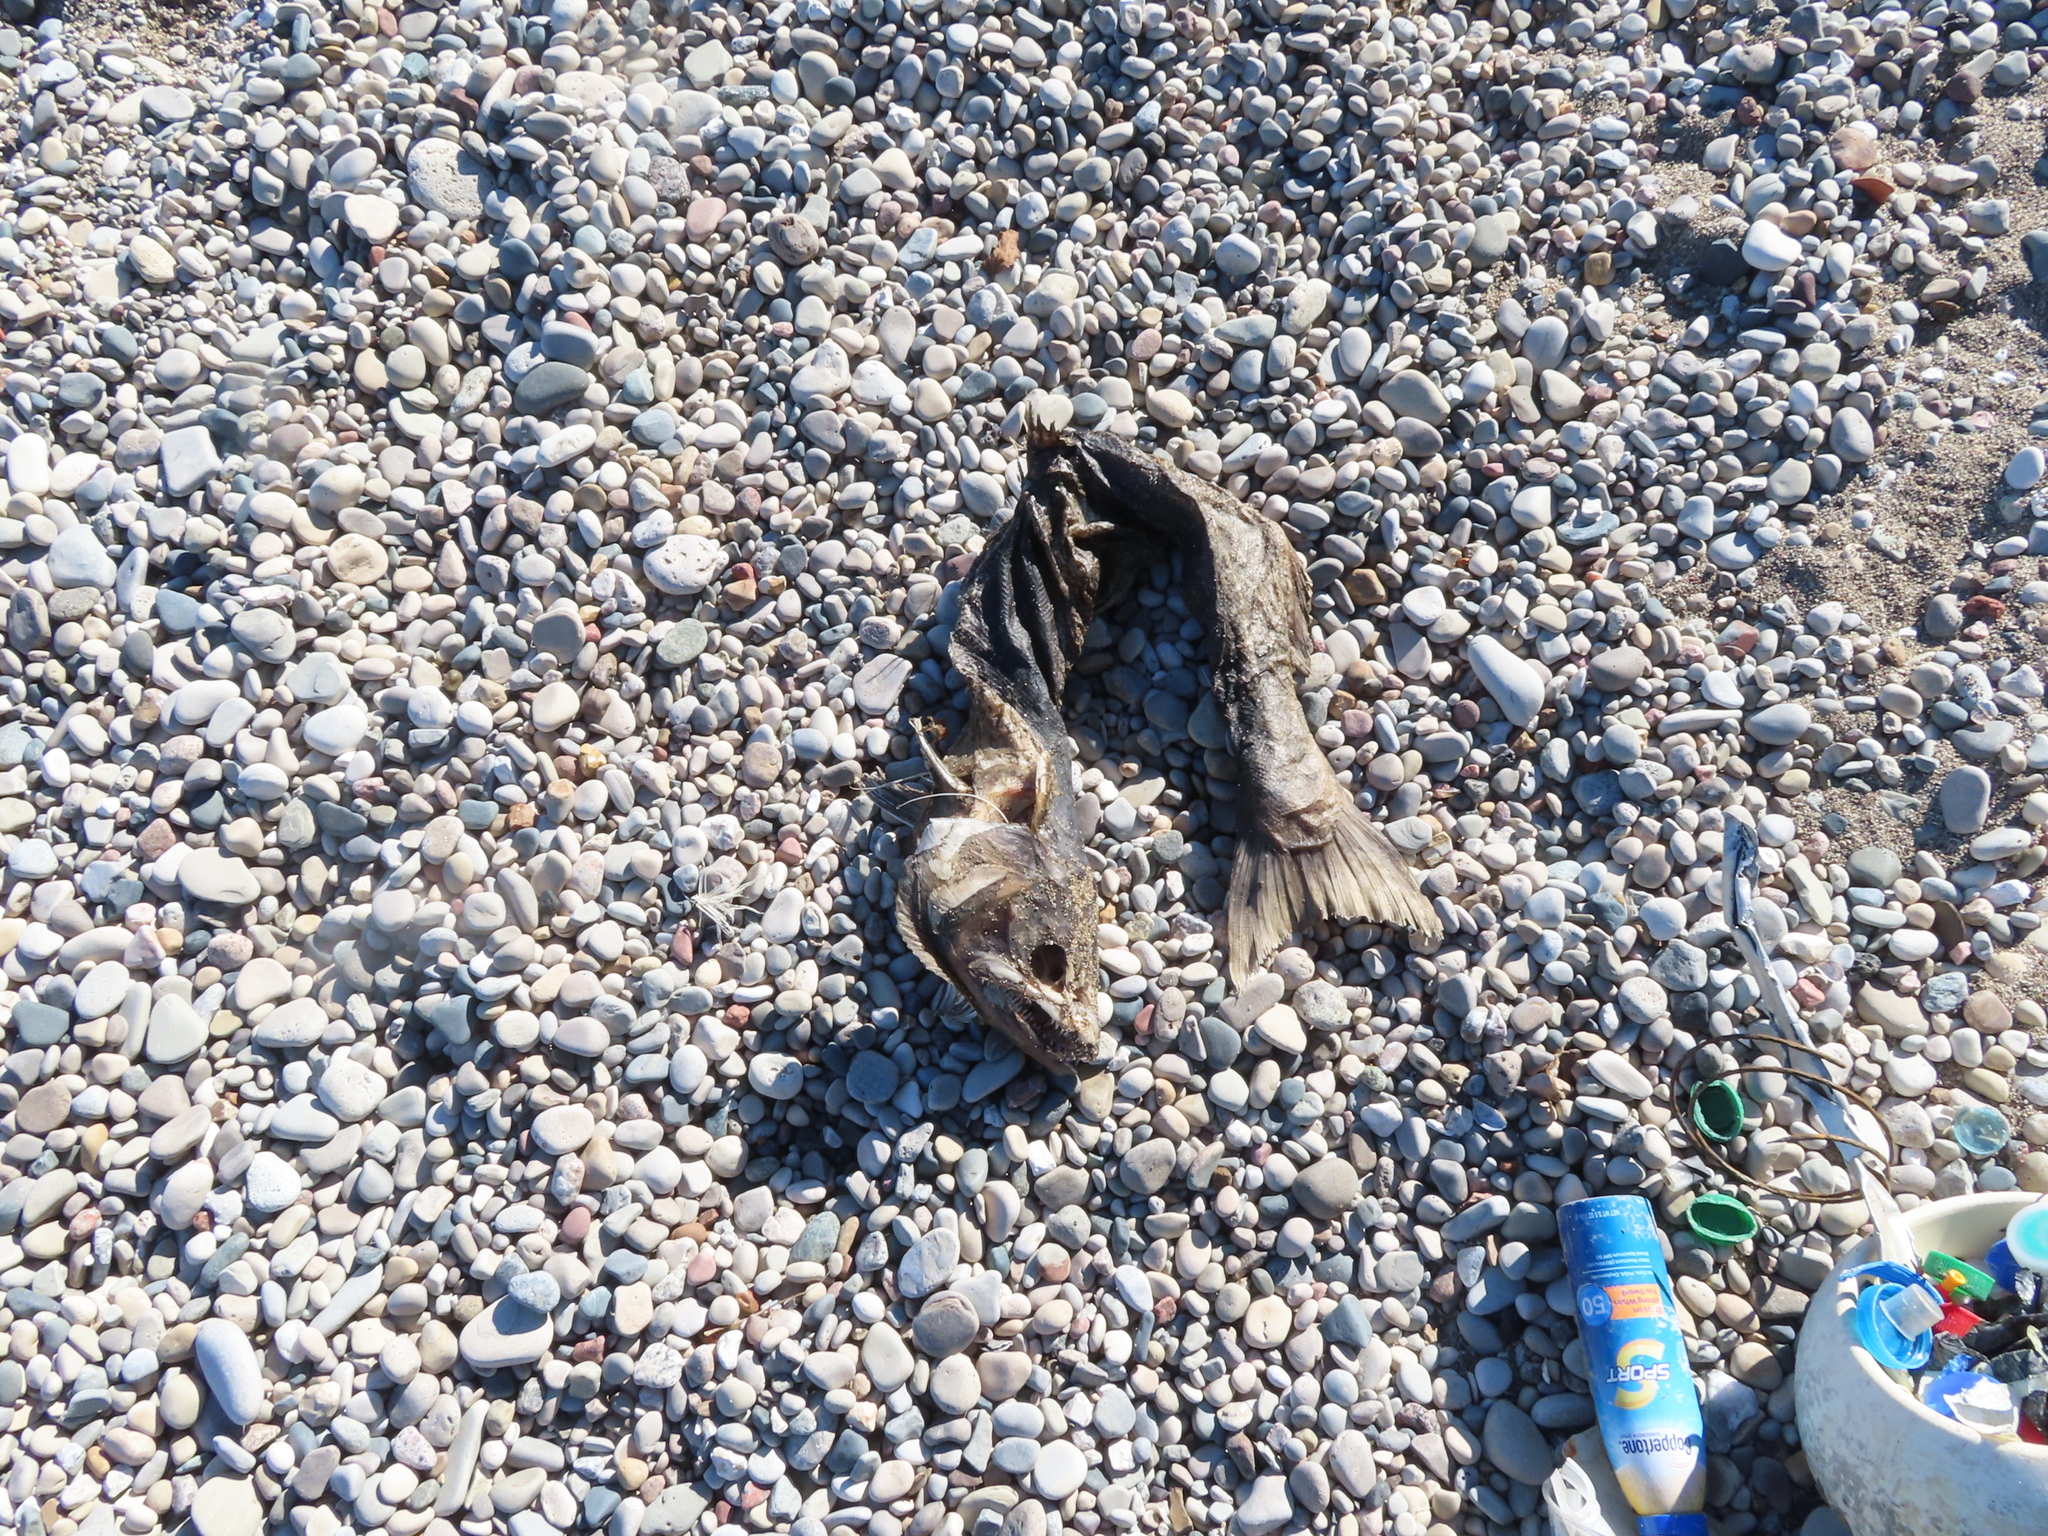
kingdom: Animalia
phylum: Chordata
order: Salmoniformes
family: Salmonidae
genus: Oncorhynchus
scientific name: Oncorhynchus tshawytscha
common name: Chinook salmon
